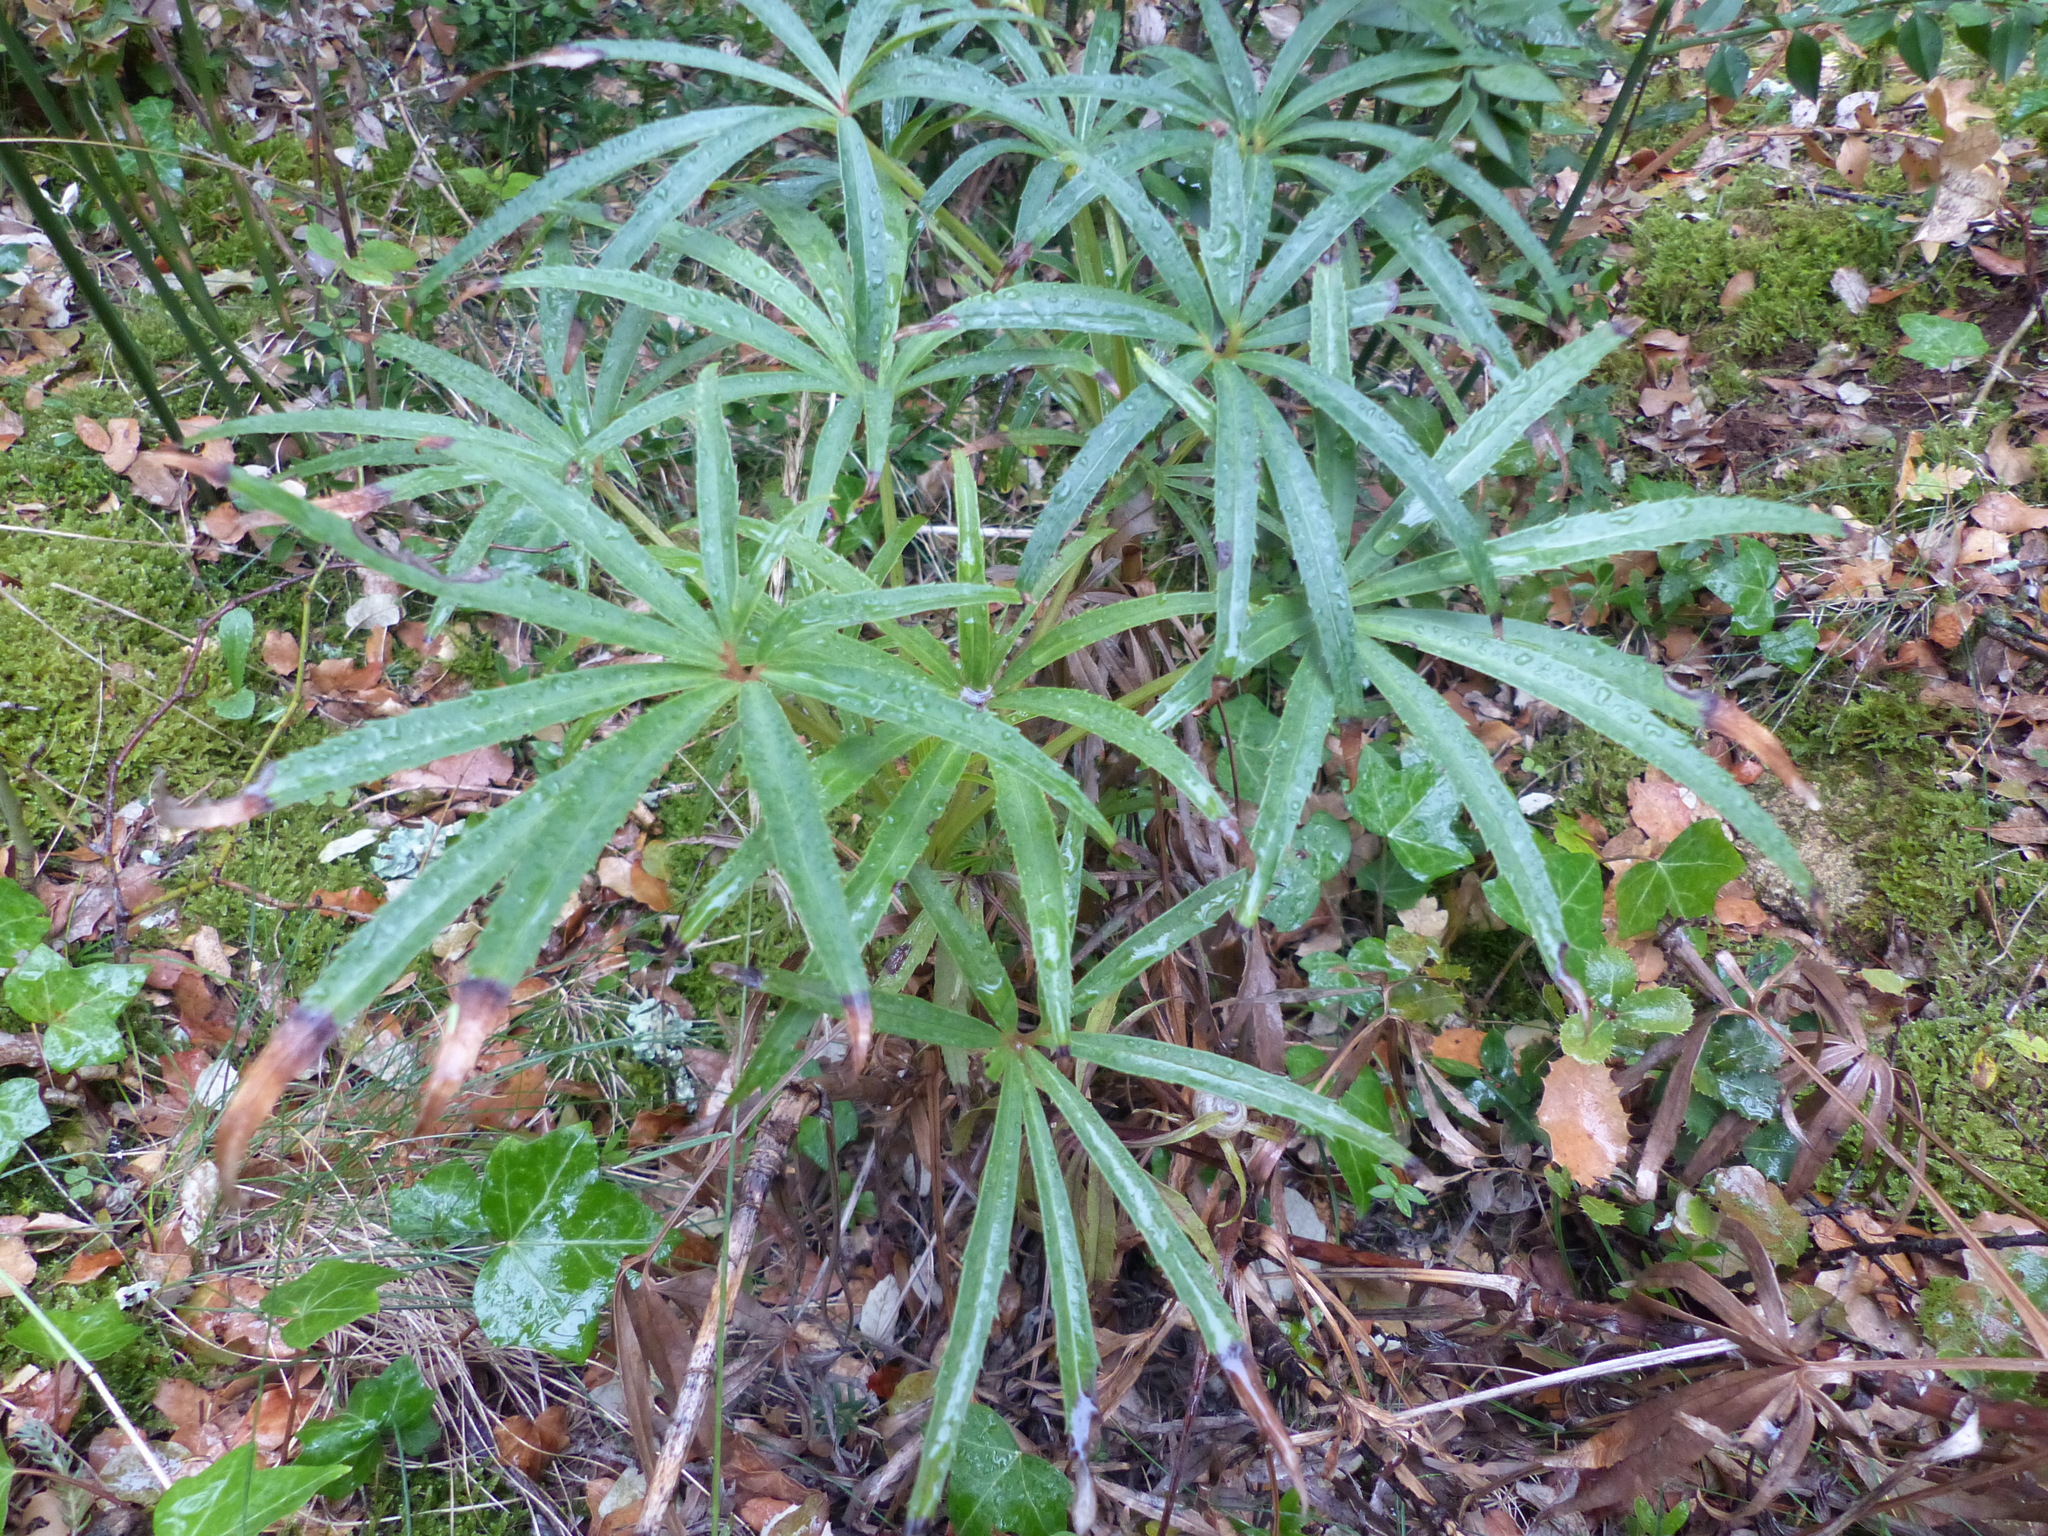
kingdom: Plantae
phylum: Tracheophyta
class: Magnoliopsida
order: Ranunculales
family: Ranunculaceae
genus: Helleborus
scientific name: Helleborus foetidus
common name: Stinking hellebore
